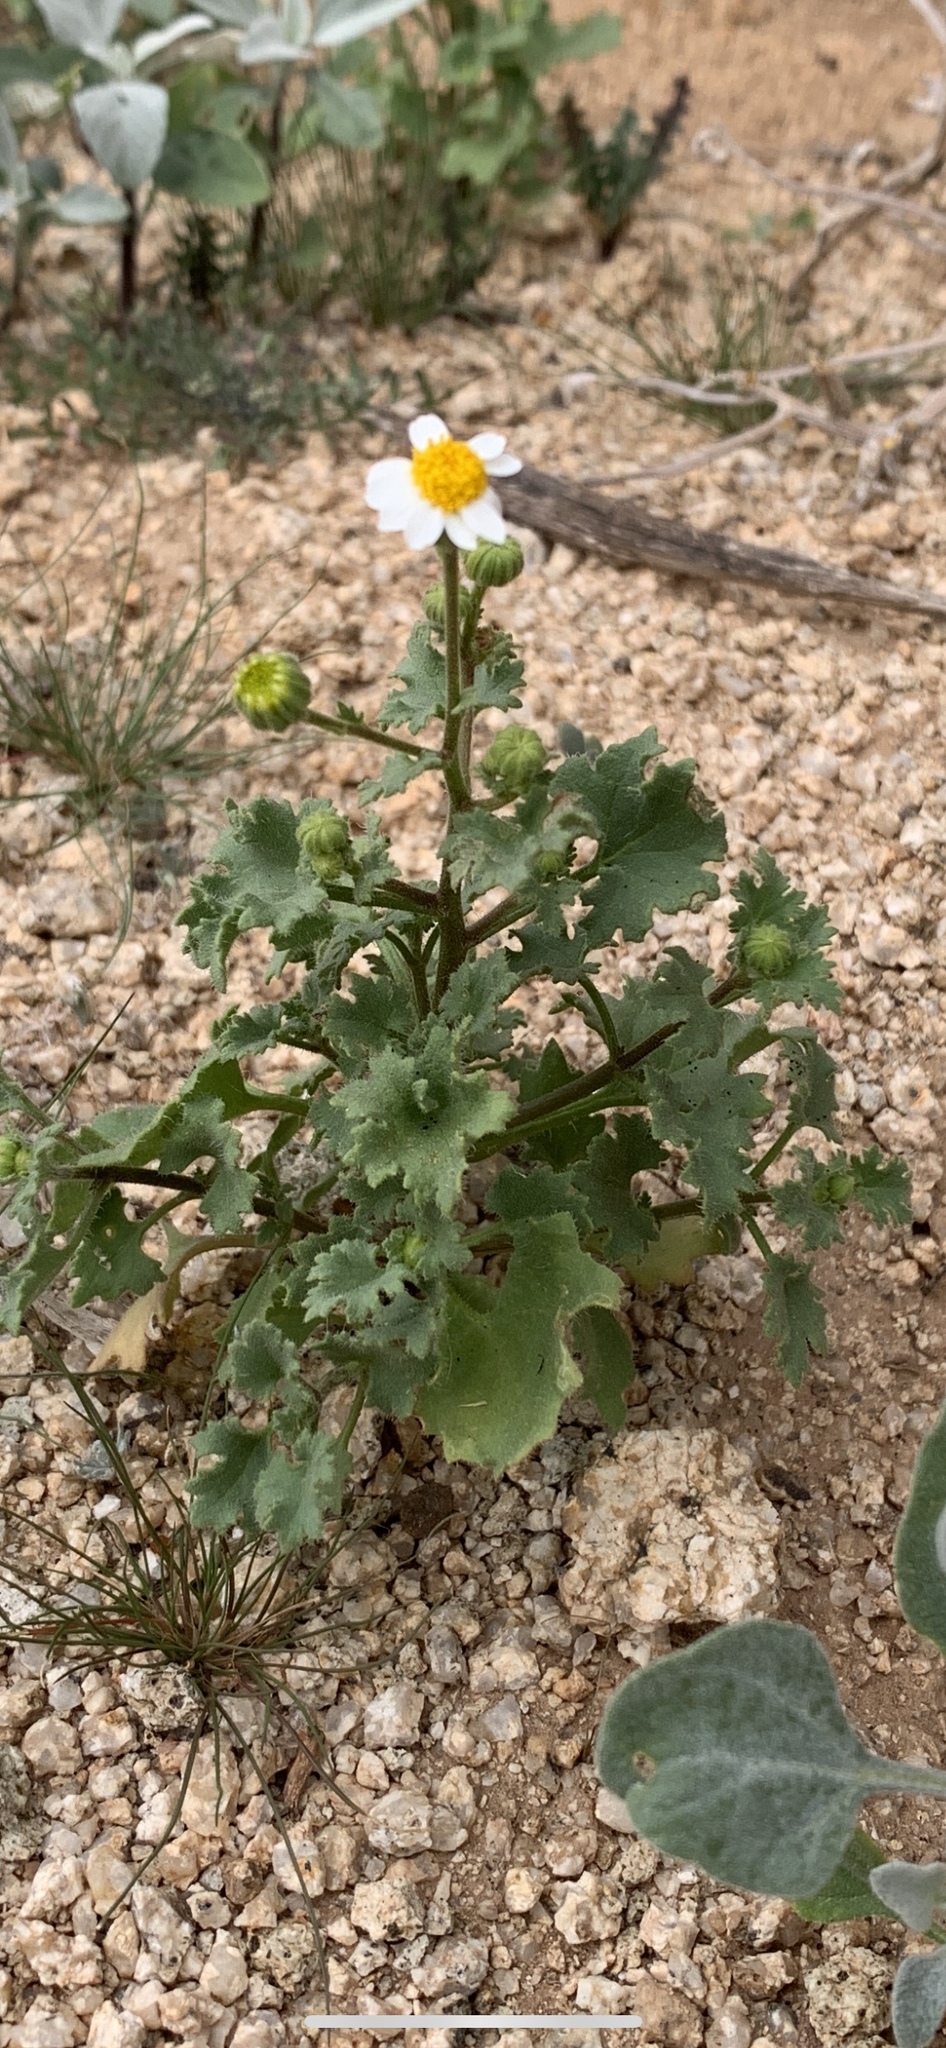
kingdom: Plantae
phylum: Tracheophyta
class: Magnoliopsida
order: Asterales
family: Asteraceae
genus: Laphamia
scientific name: Laphamia emoryi
